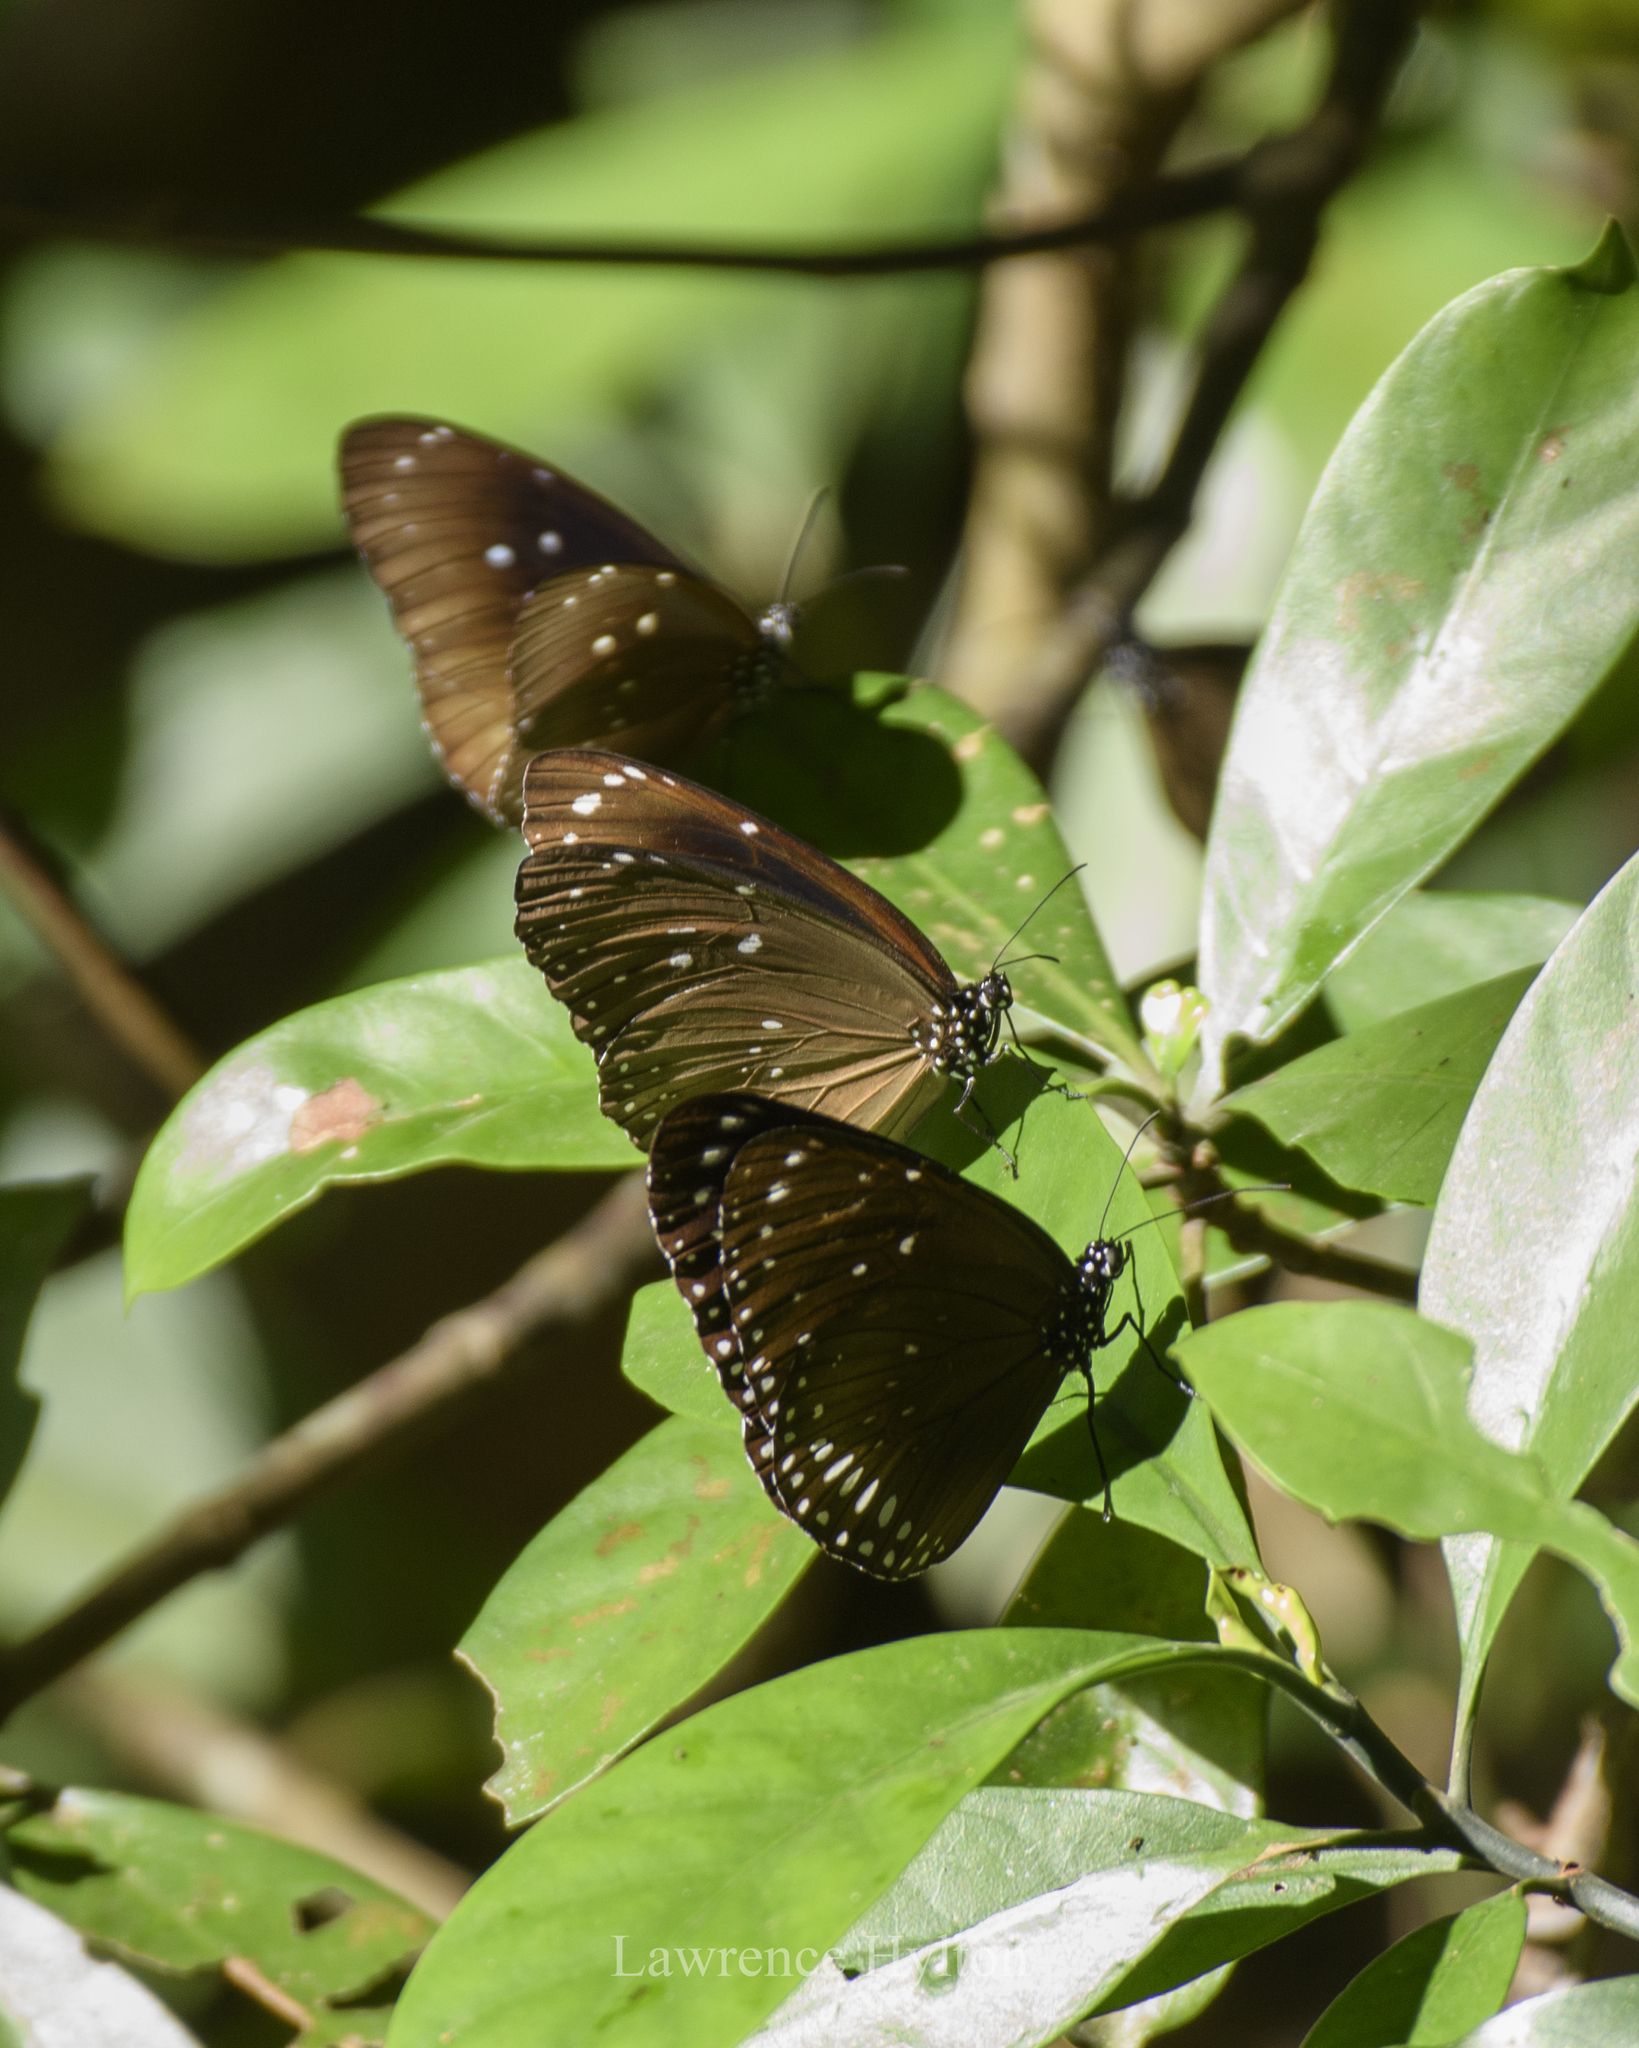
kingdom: Animalia
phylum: Arthropoda
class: Insecta
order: Lepidoptera
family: Nymphalidae
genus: Euploea
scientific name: Euploea midamus
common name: Blue-spotted crow butterfly
